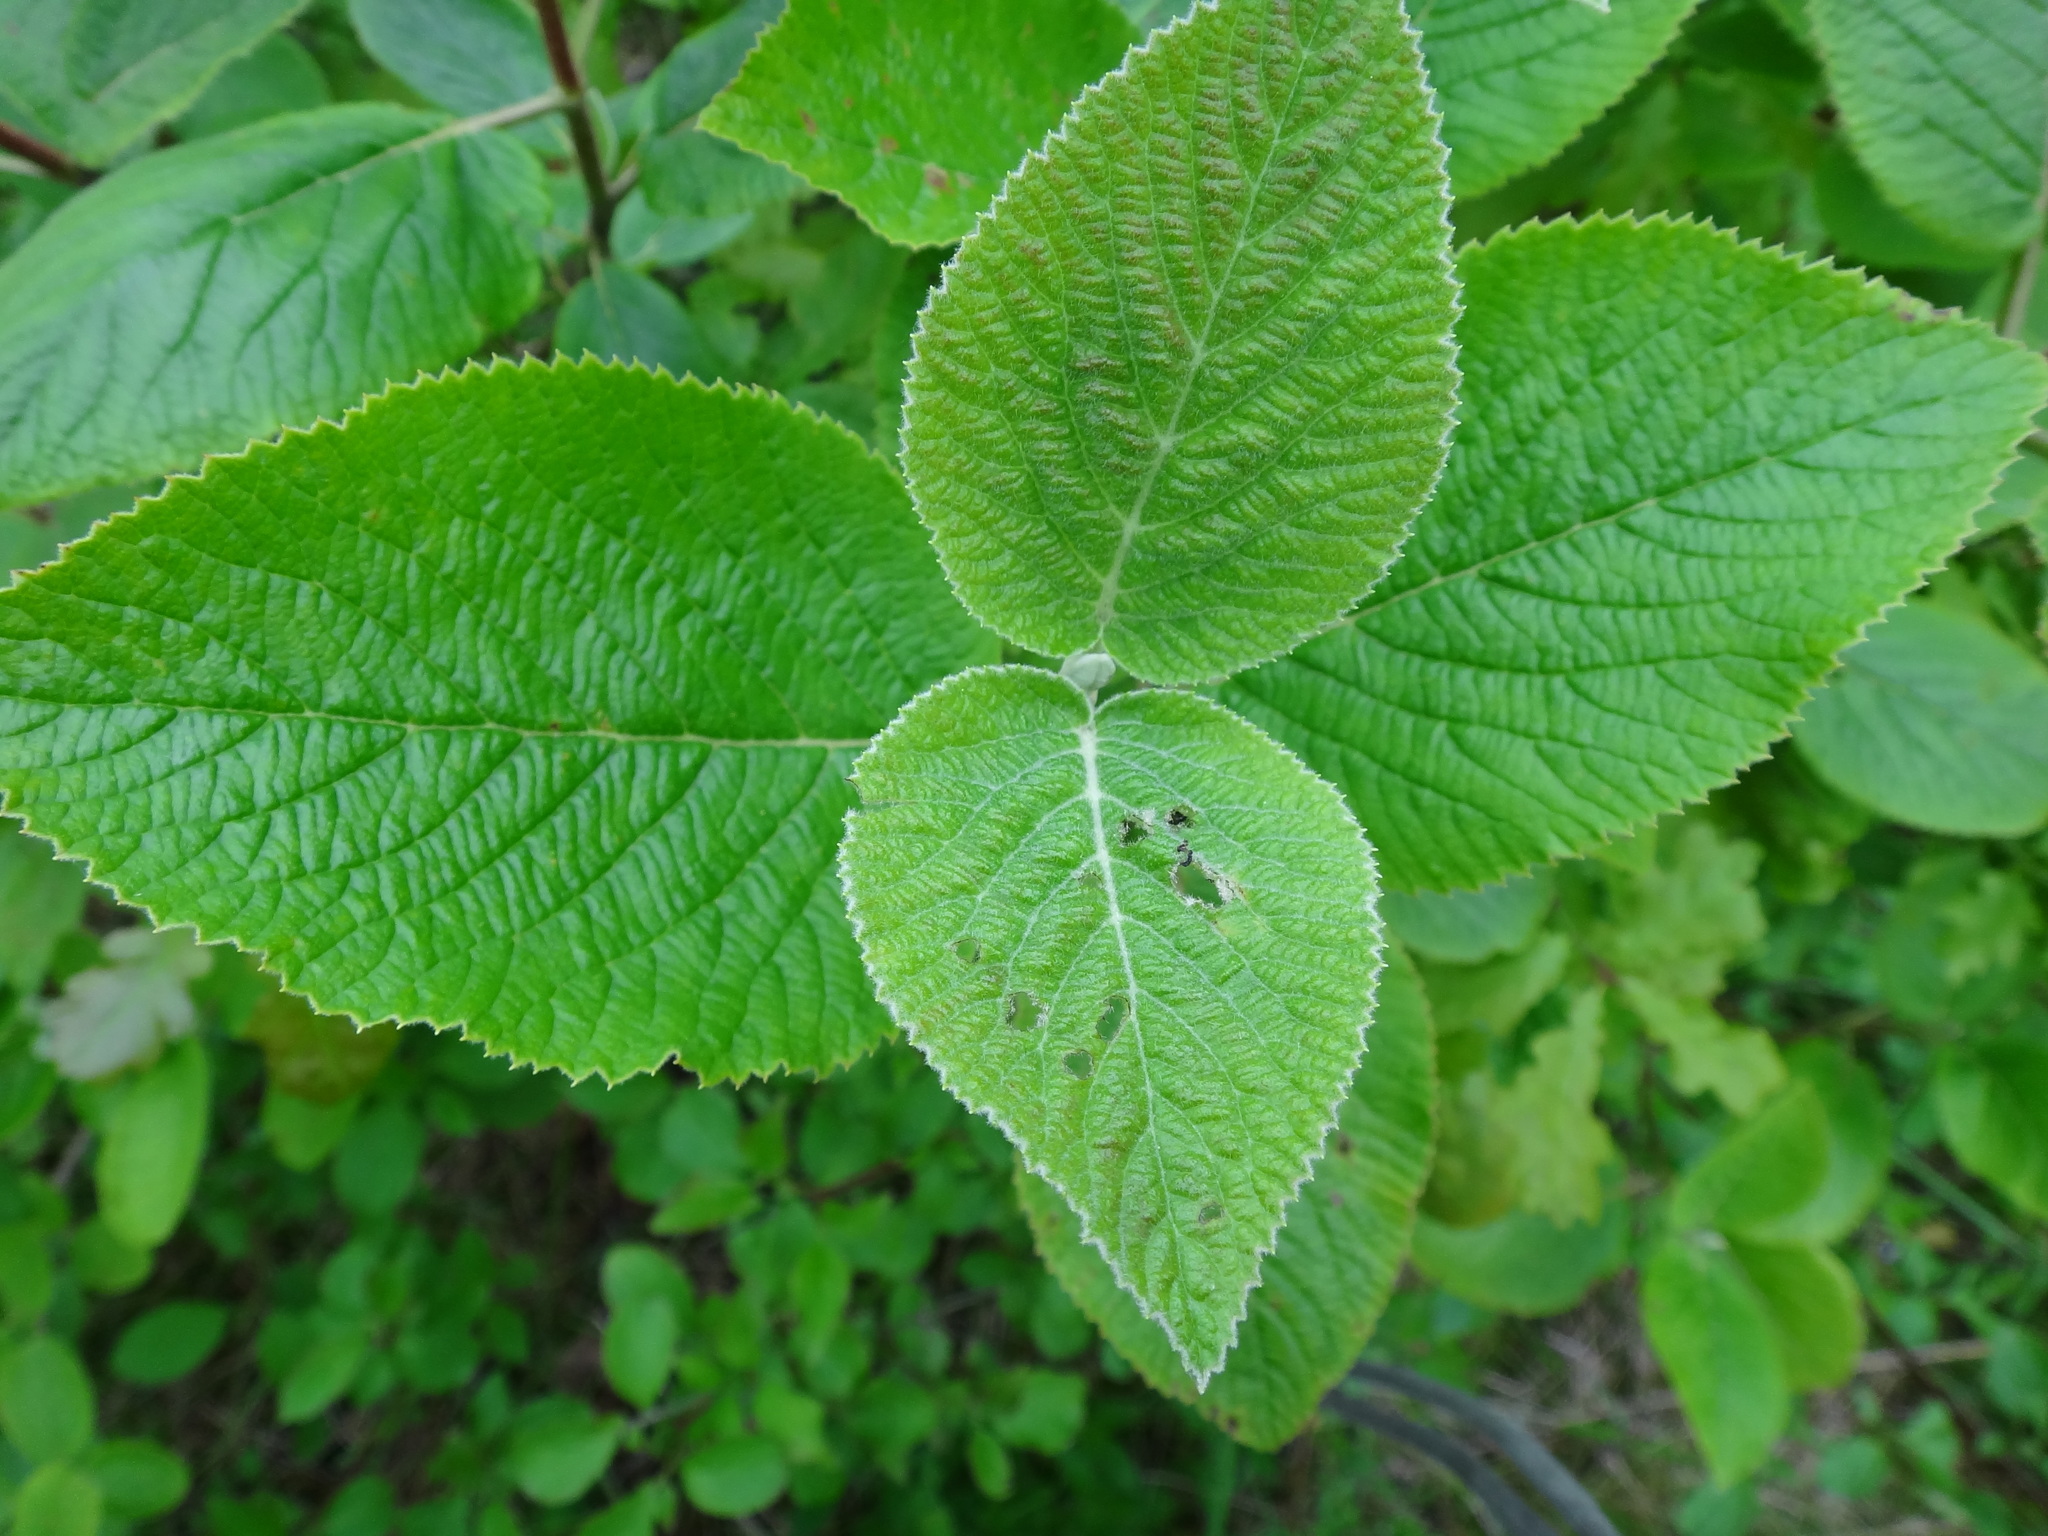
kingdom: Plantae
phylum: Tracheophyta
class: Magnoliopsida
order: Dipsacales
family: Viburnaceae
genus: Viburnum
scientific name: Viburnum lantana
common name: Wayfaring tree
